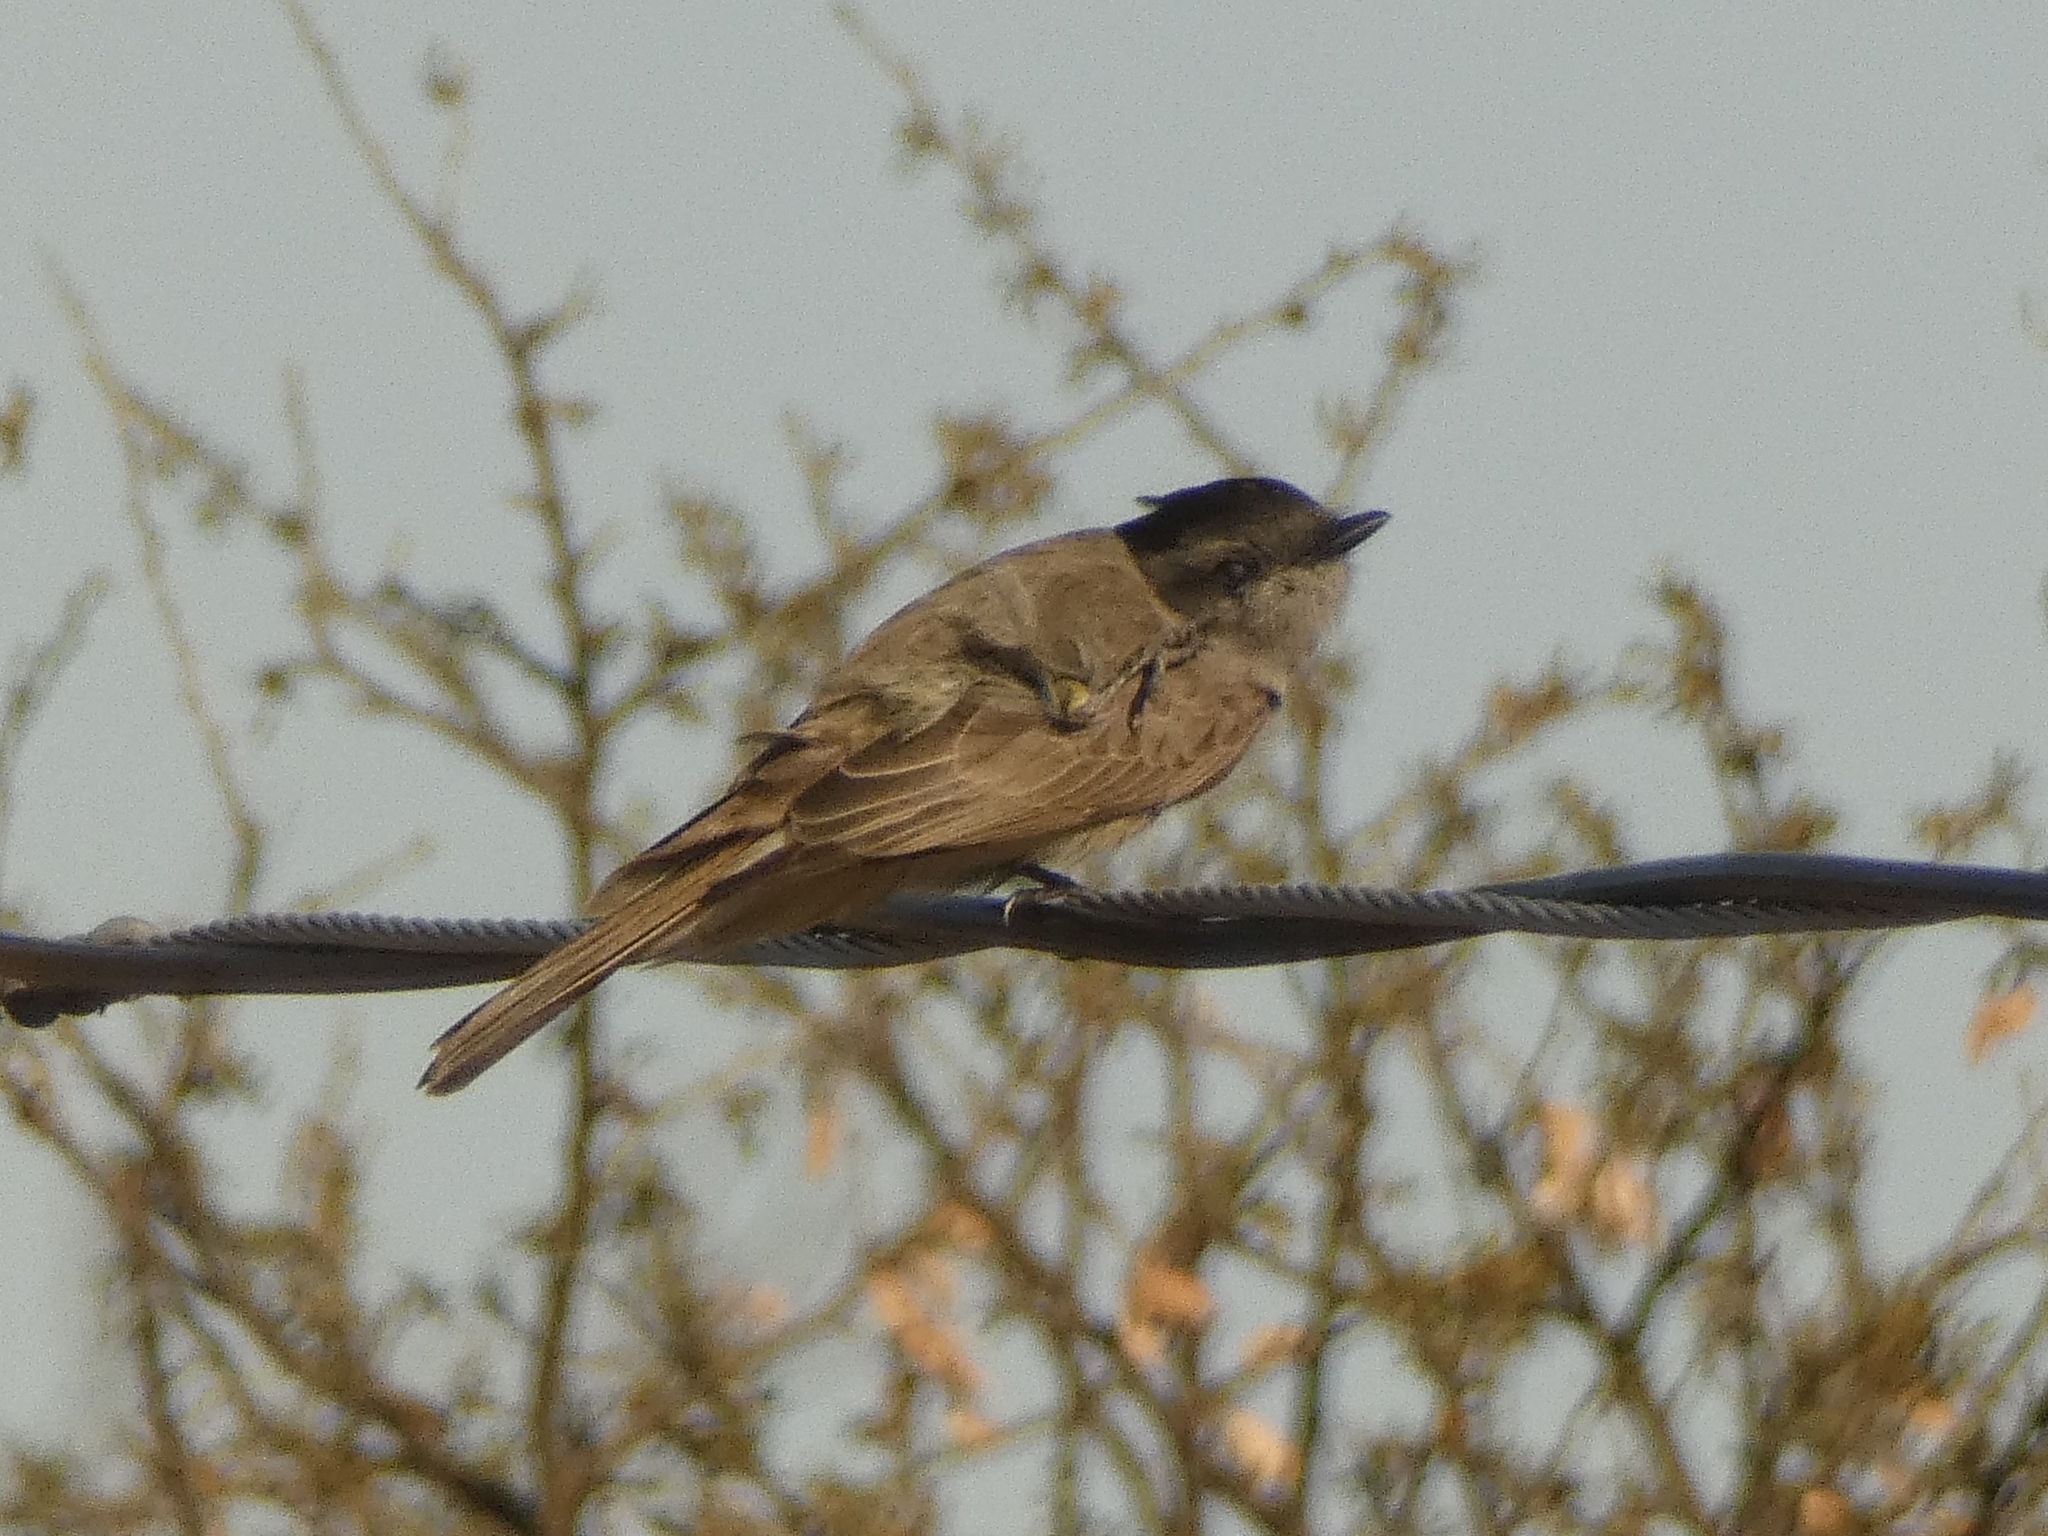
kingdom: Animalia
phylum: Chordata
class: Aves
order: Passeriformes
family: Tyrannidae
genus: Empidonomus
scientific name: Empidonomus aurantioatrocristatus
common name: Crowned slaty flycatcher
